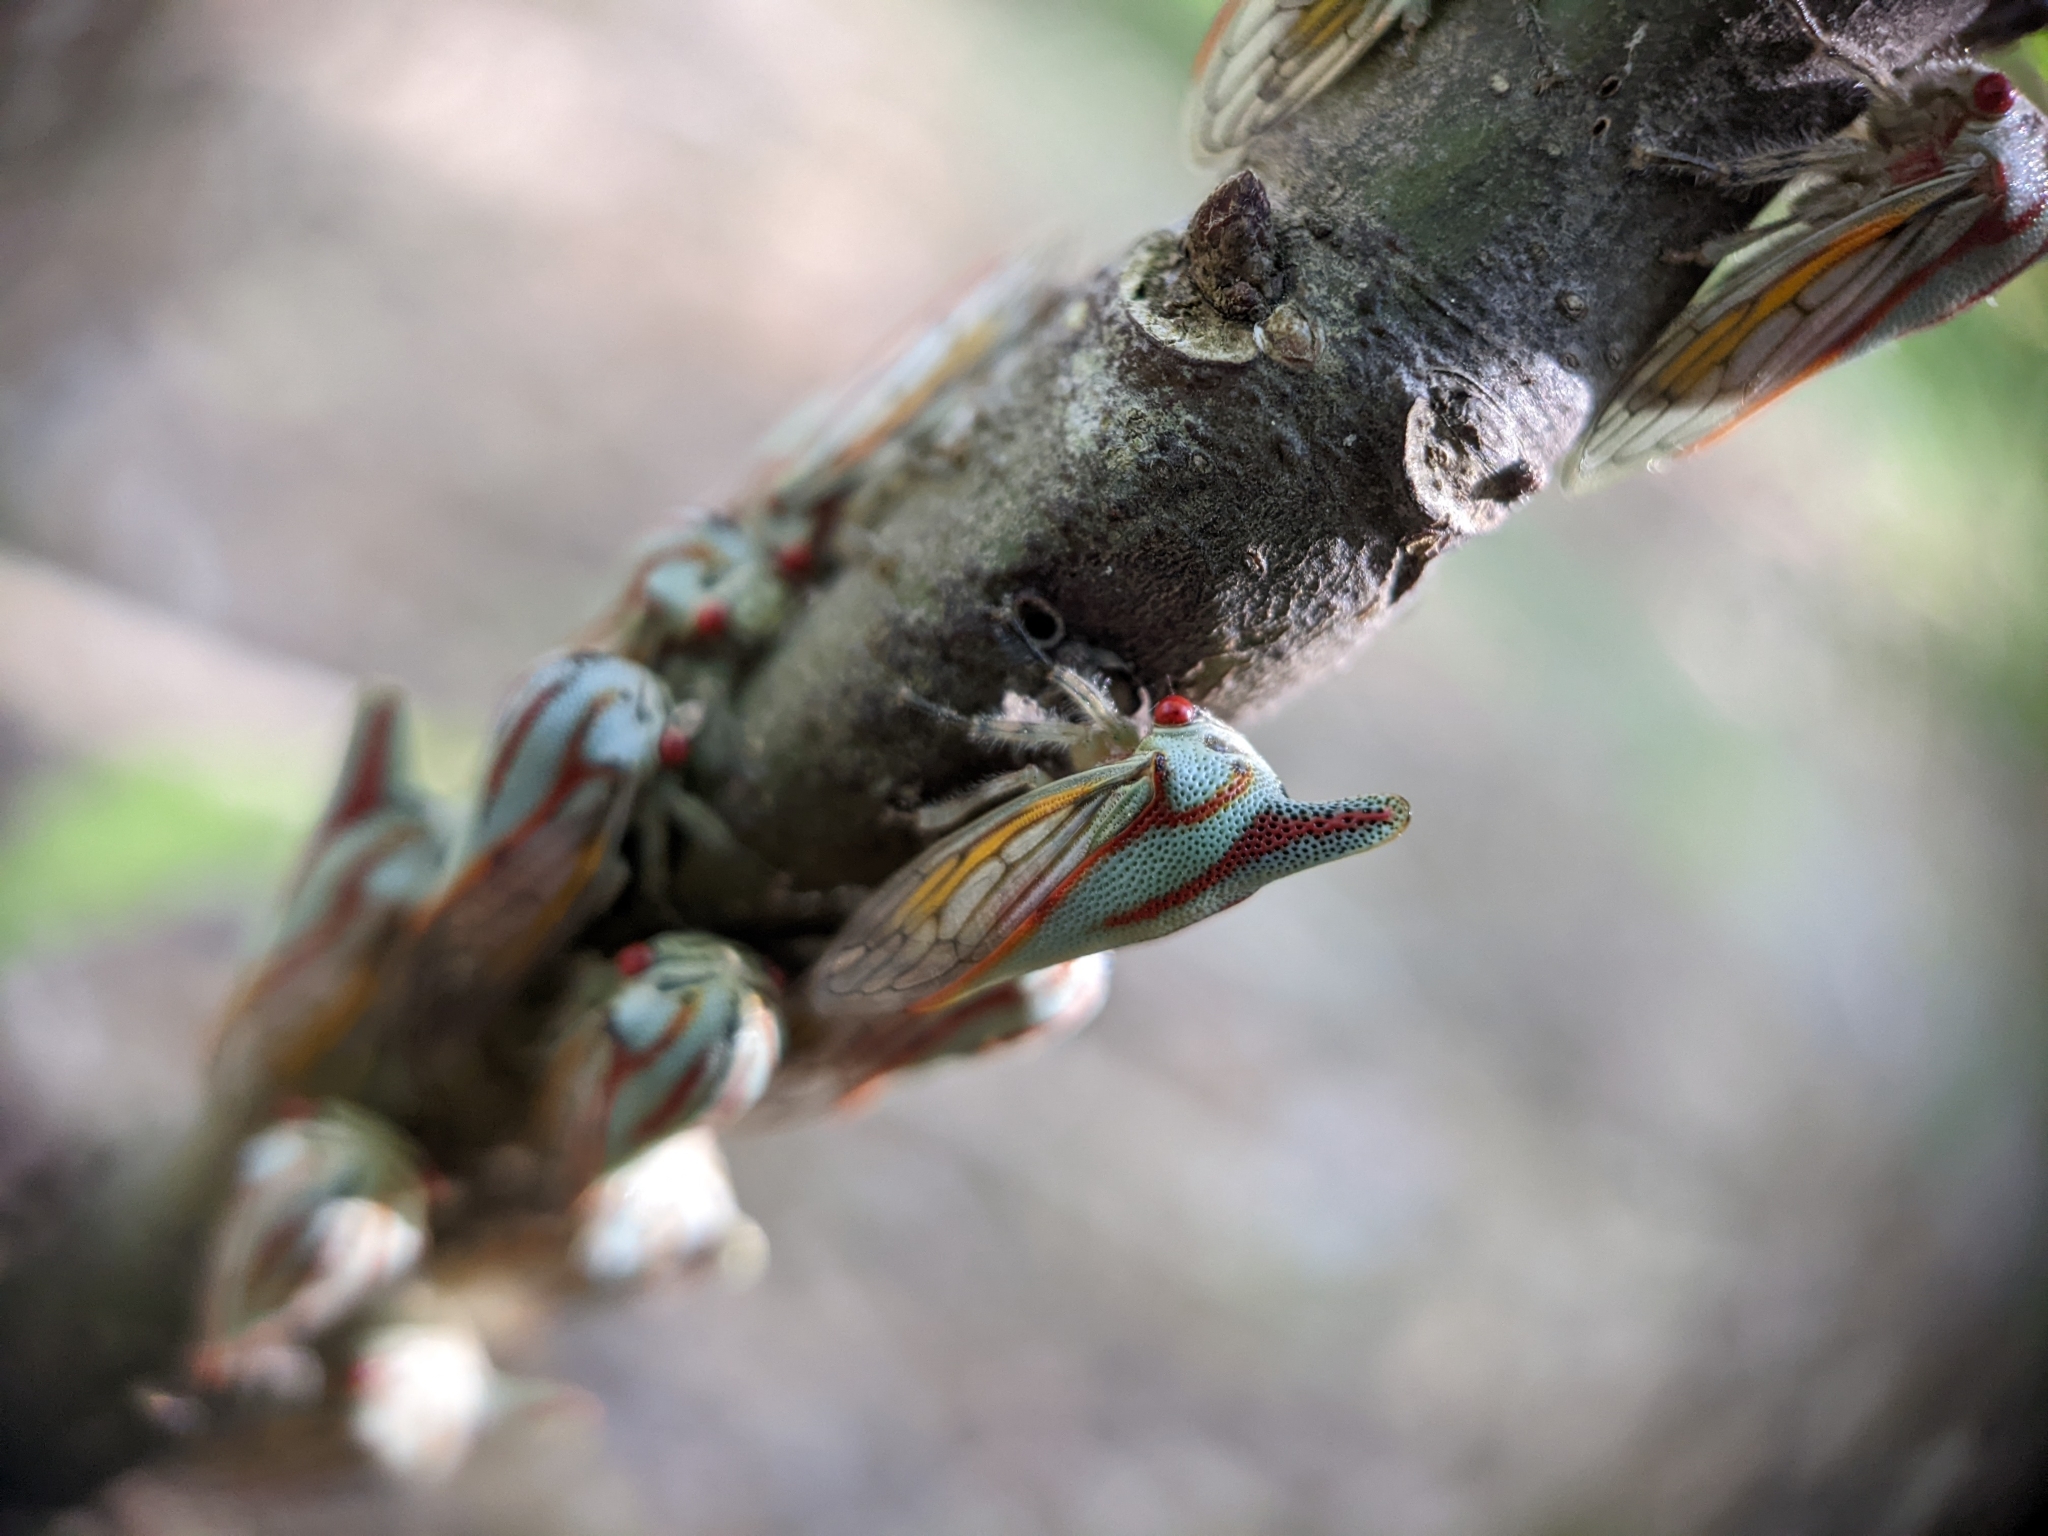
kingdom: Animalia
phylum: Arthropoda
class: Insecta
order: Hemiptera
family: Membracidae
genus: Platycotis
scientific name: Platycotis vittatus
